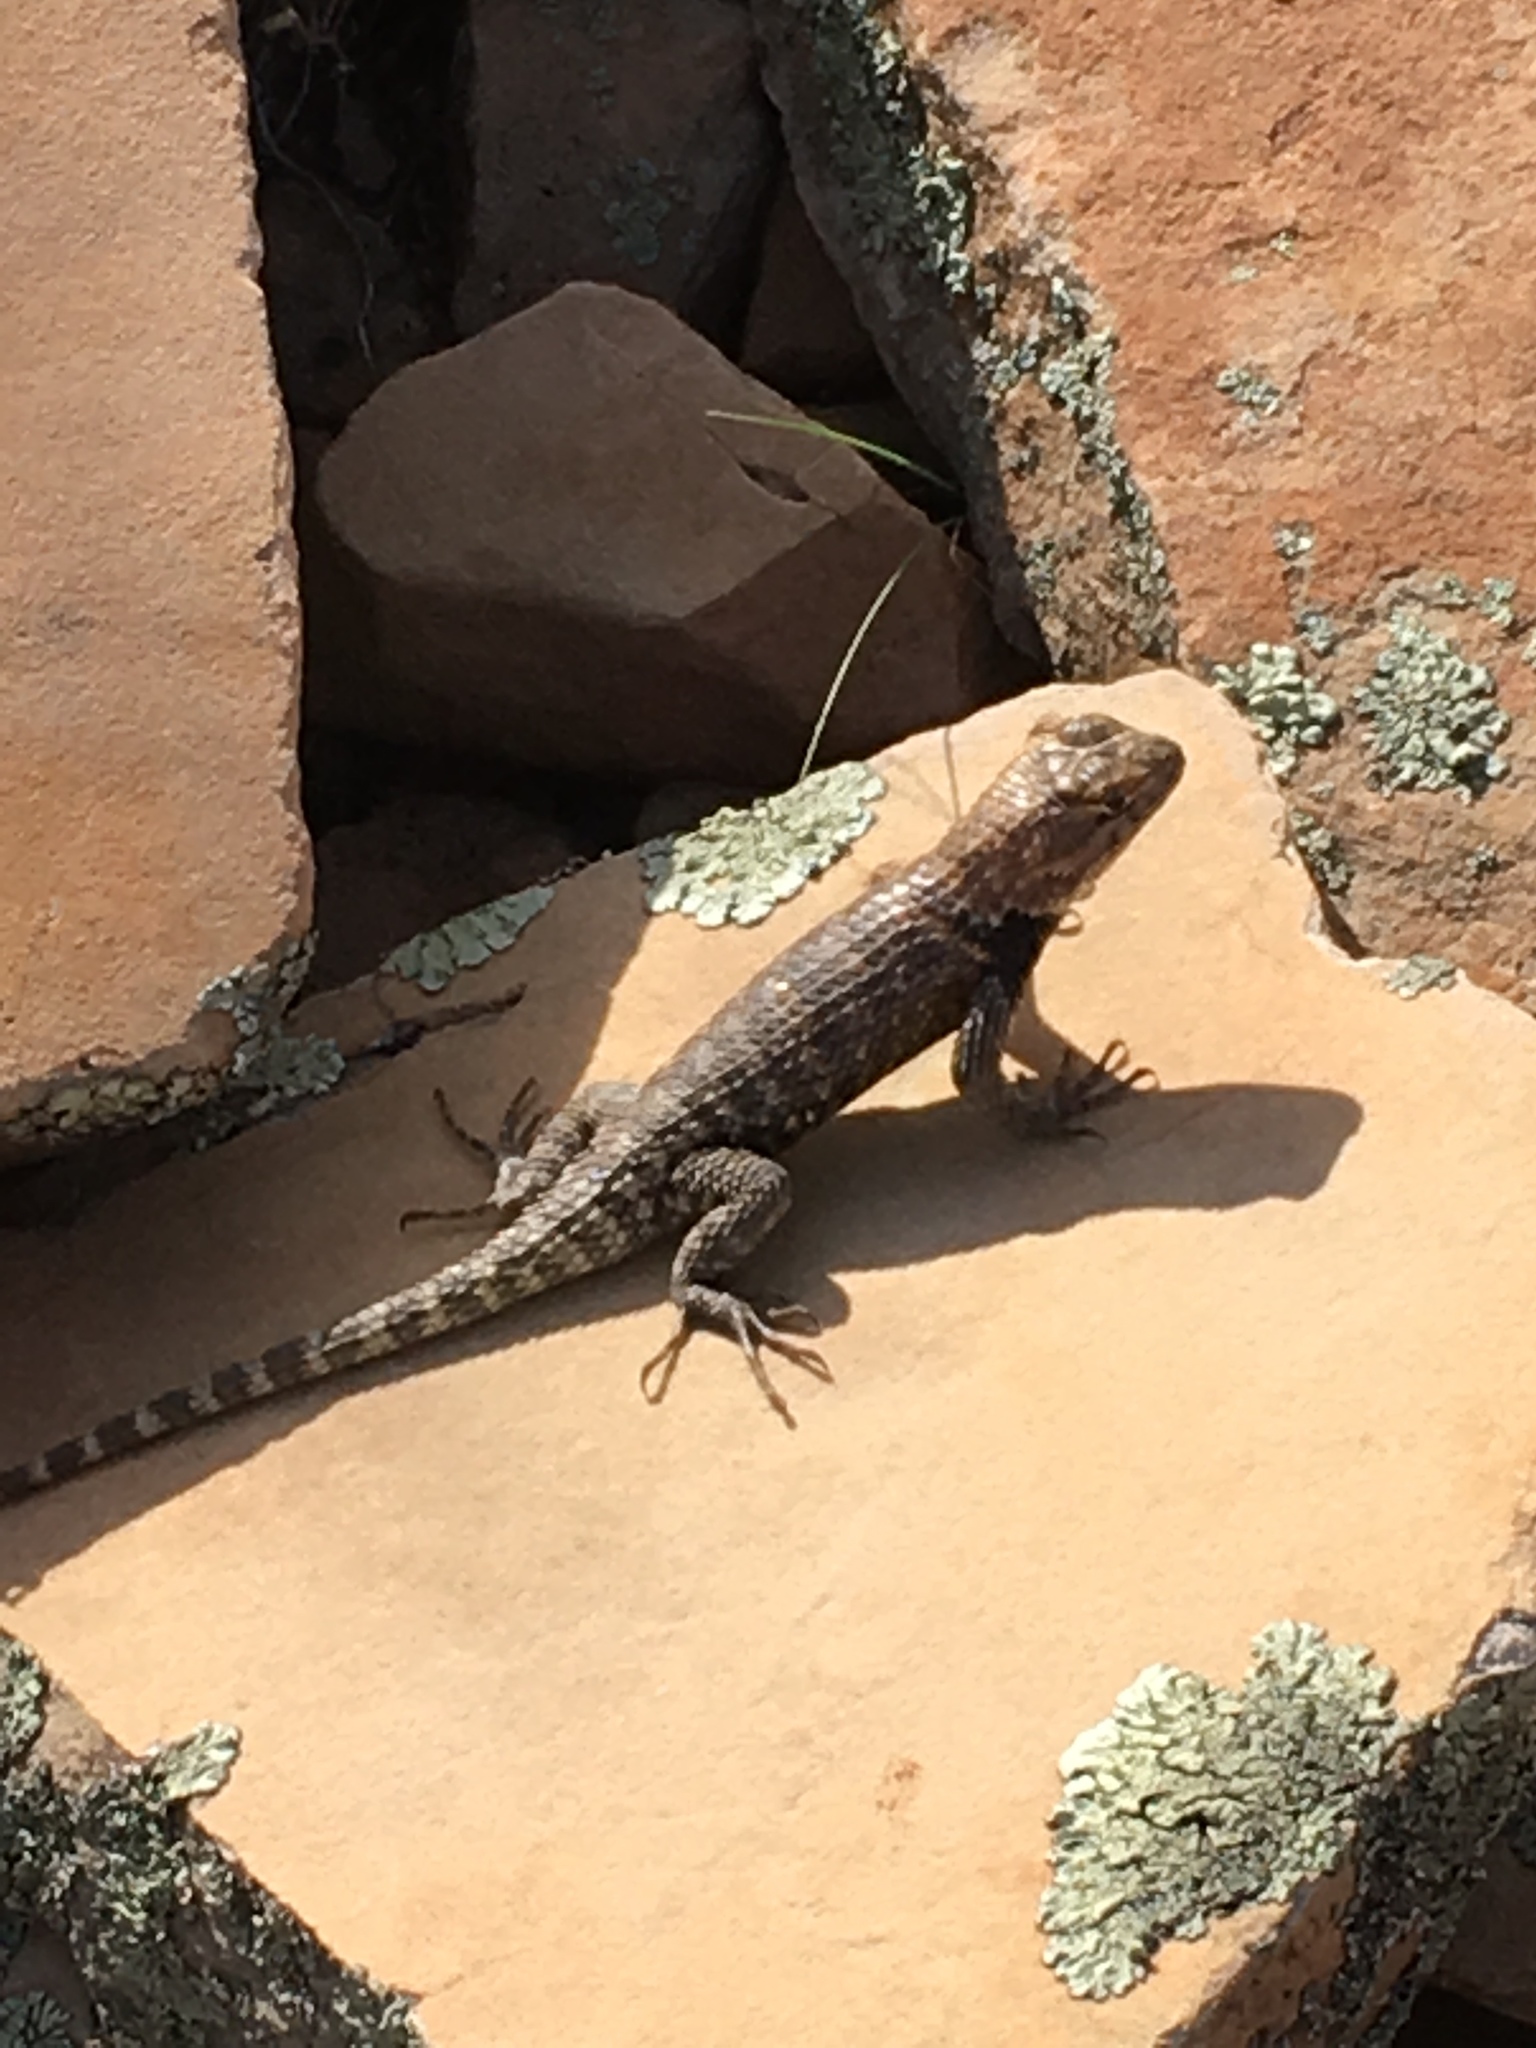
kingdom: Animalia
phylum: Chordata
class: Squamata
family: Phrynosomatidae
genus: Sceloporus
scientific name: Sceloporus magister
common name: Desert spiny lizard
